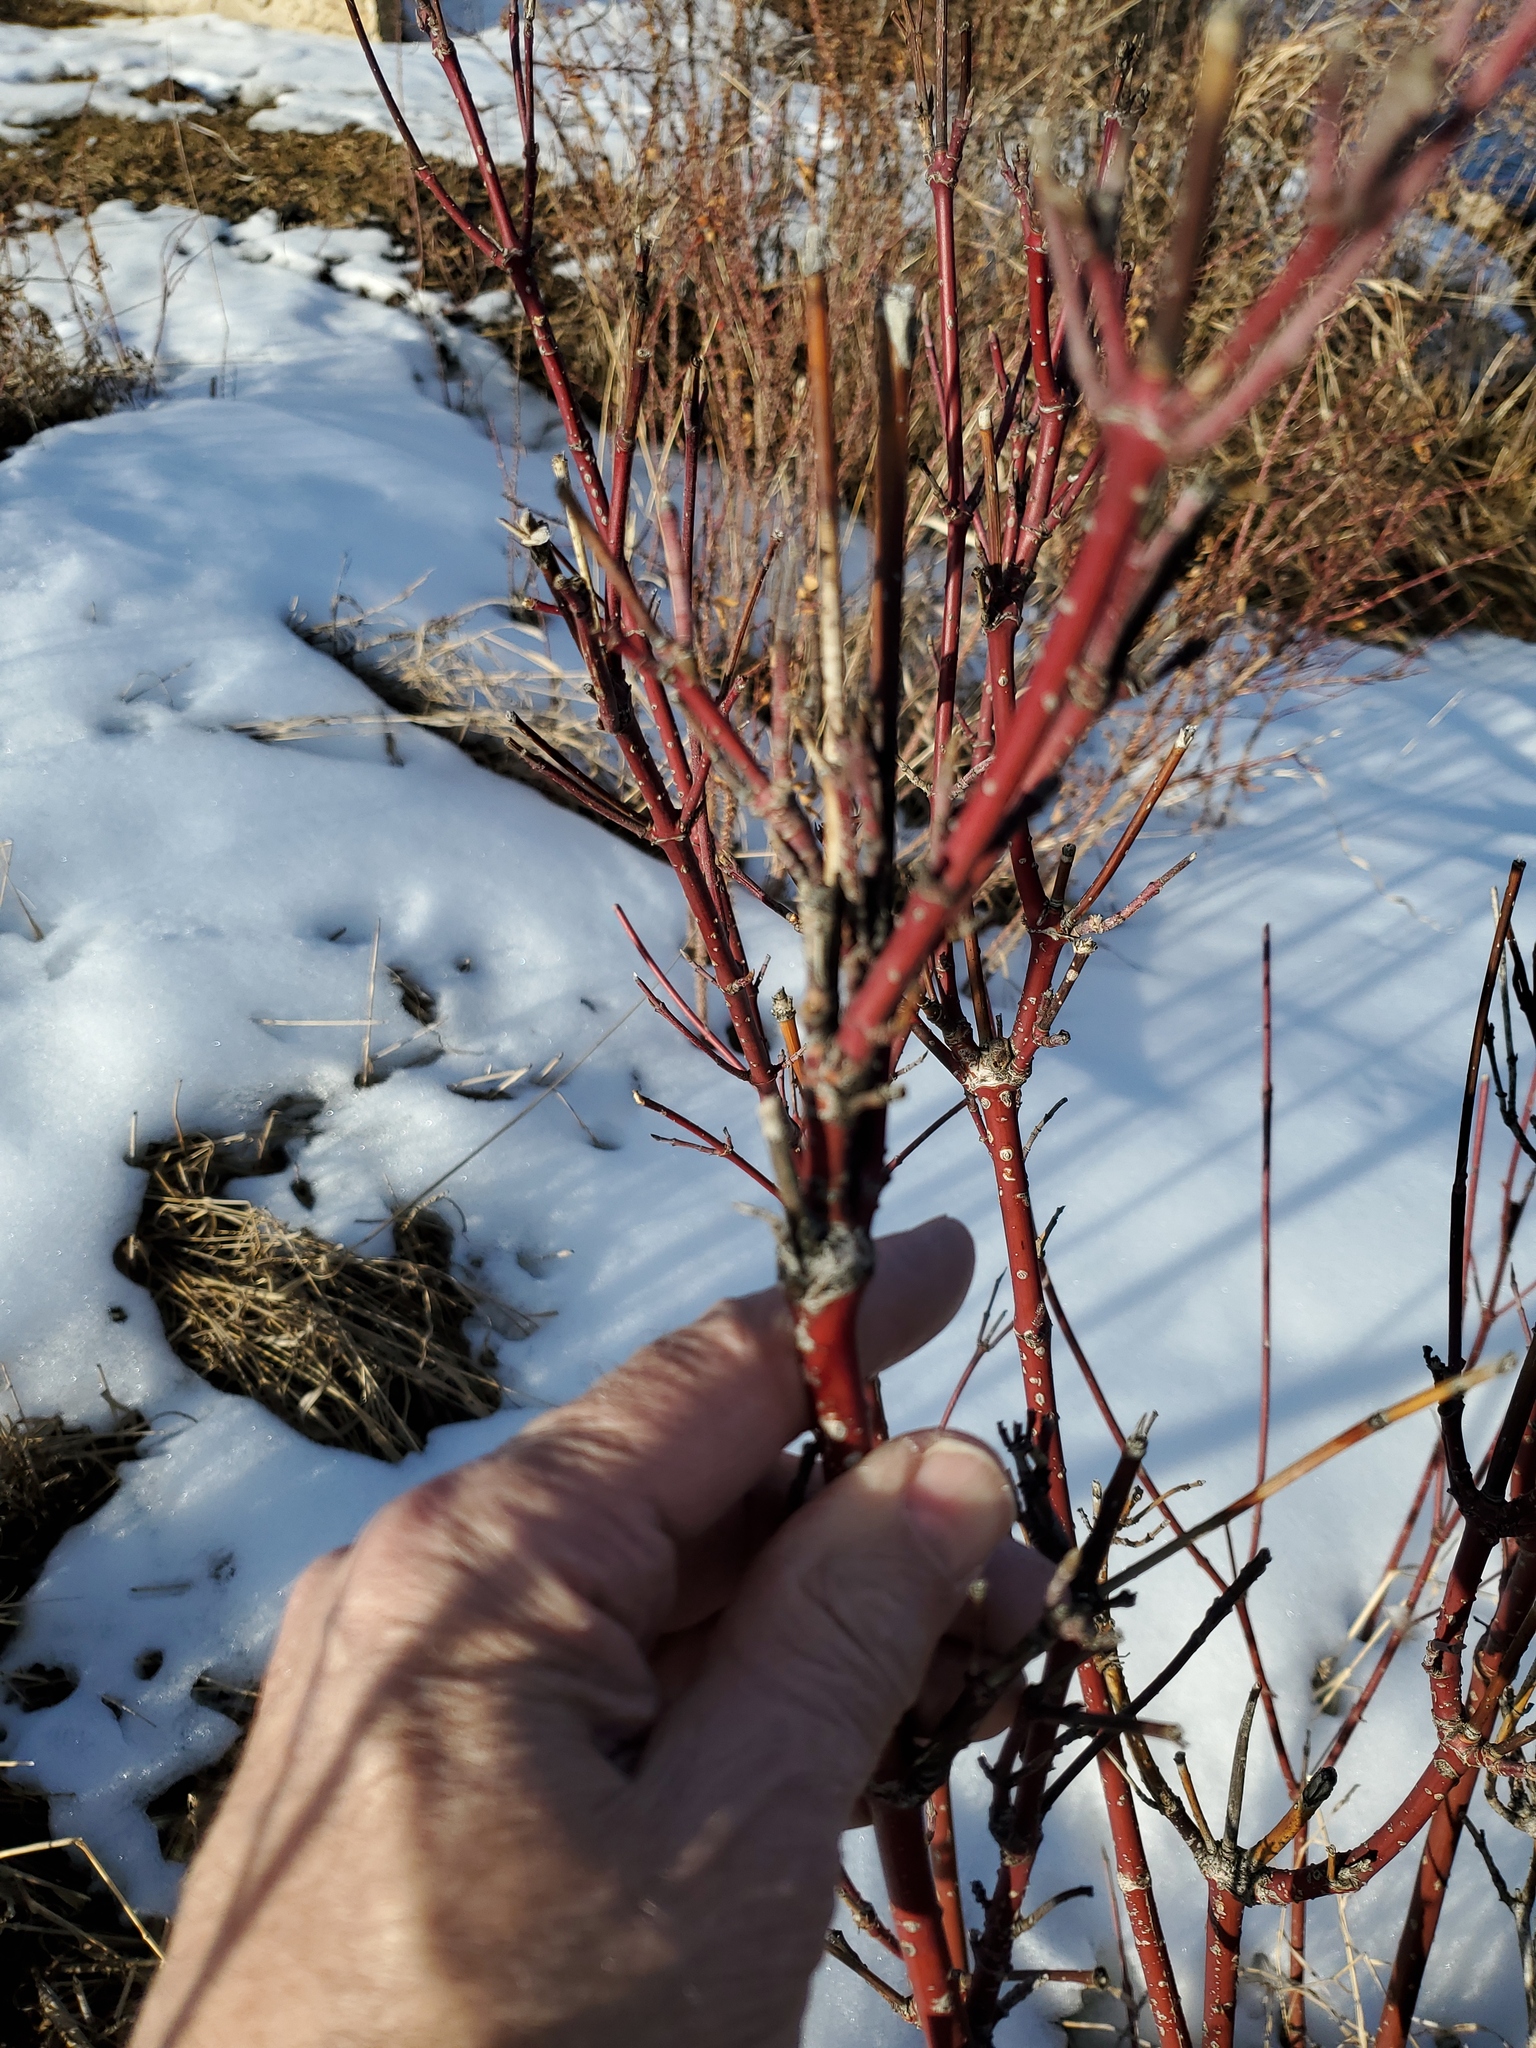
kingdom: Plantae
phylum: Tracheophyta
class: Magnoliopsida
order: Cornales
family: Cornaceae
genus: Cornus
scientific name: Cornus sericea
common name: Red-osier dogwood
